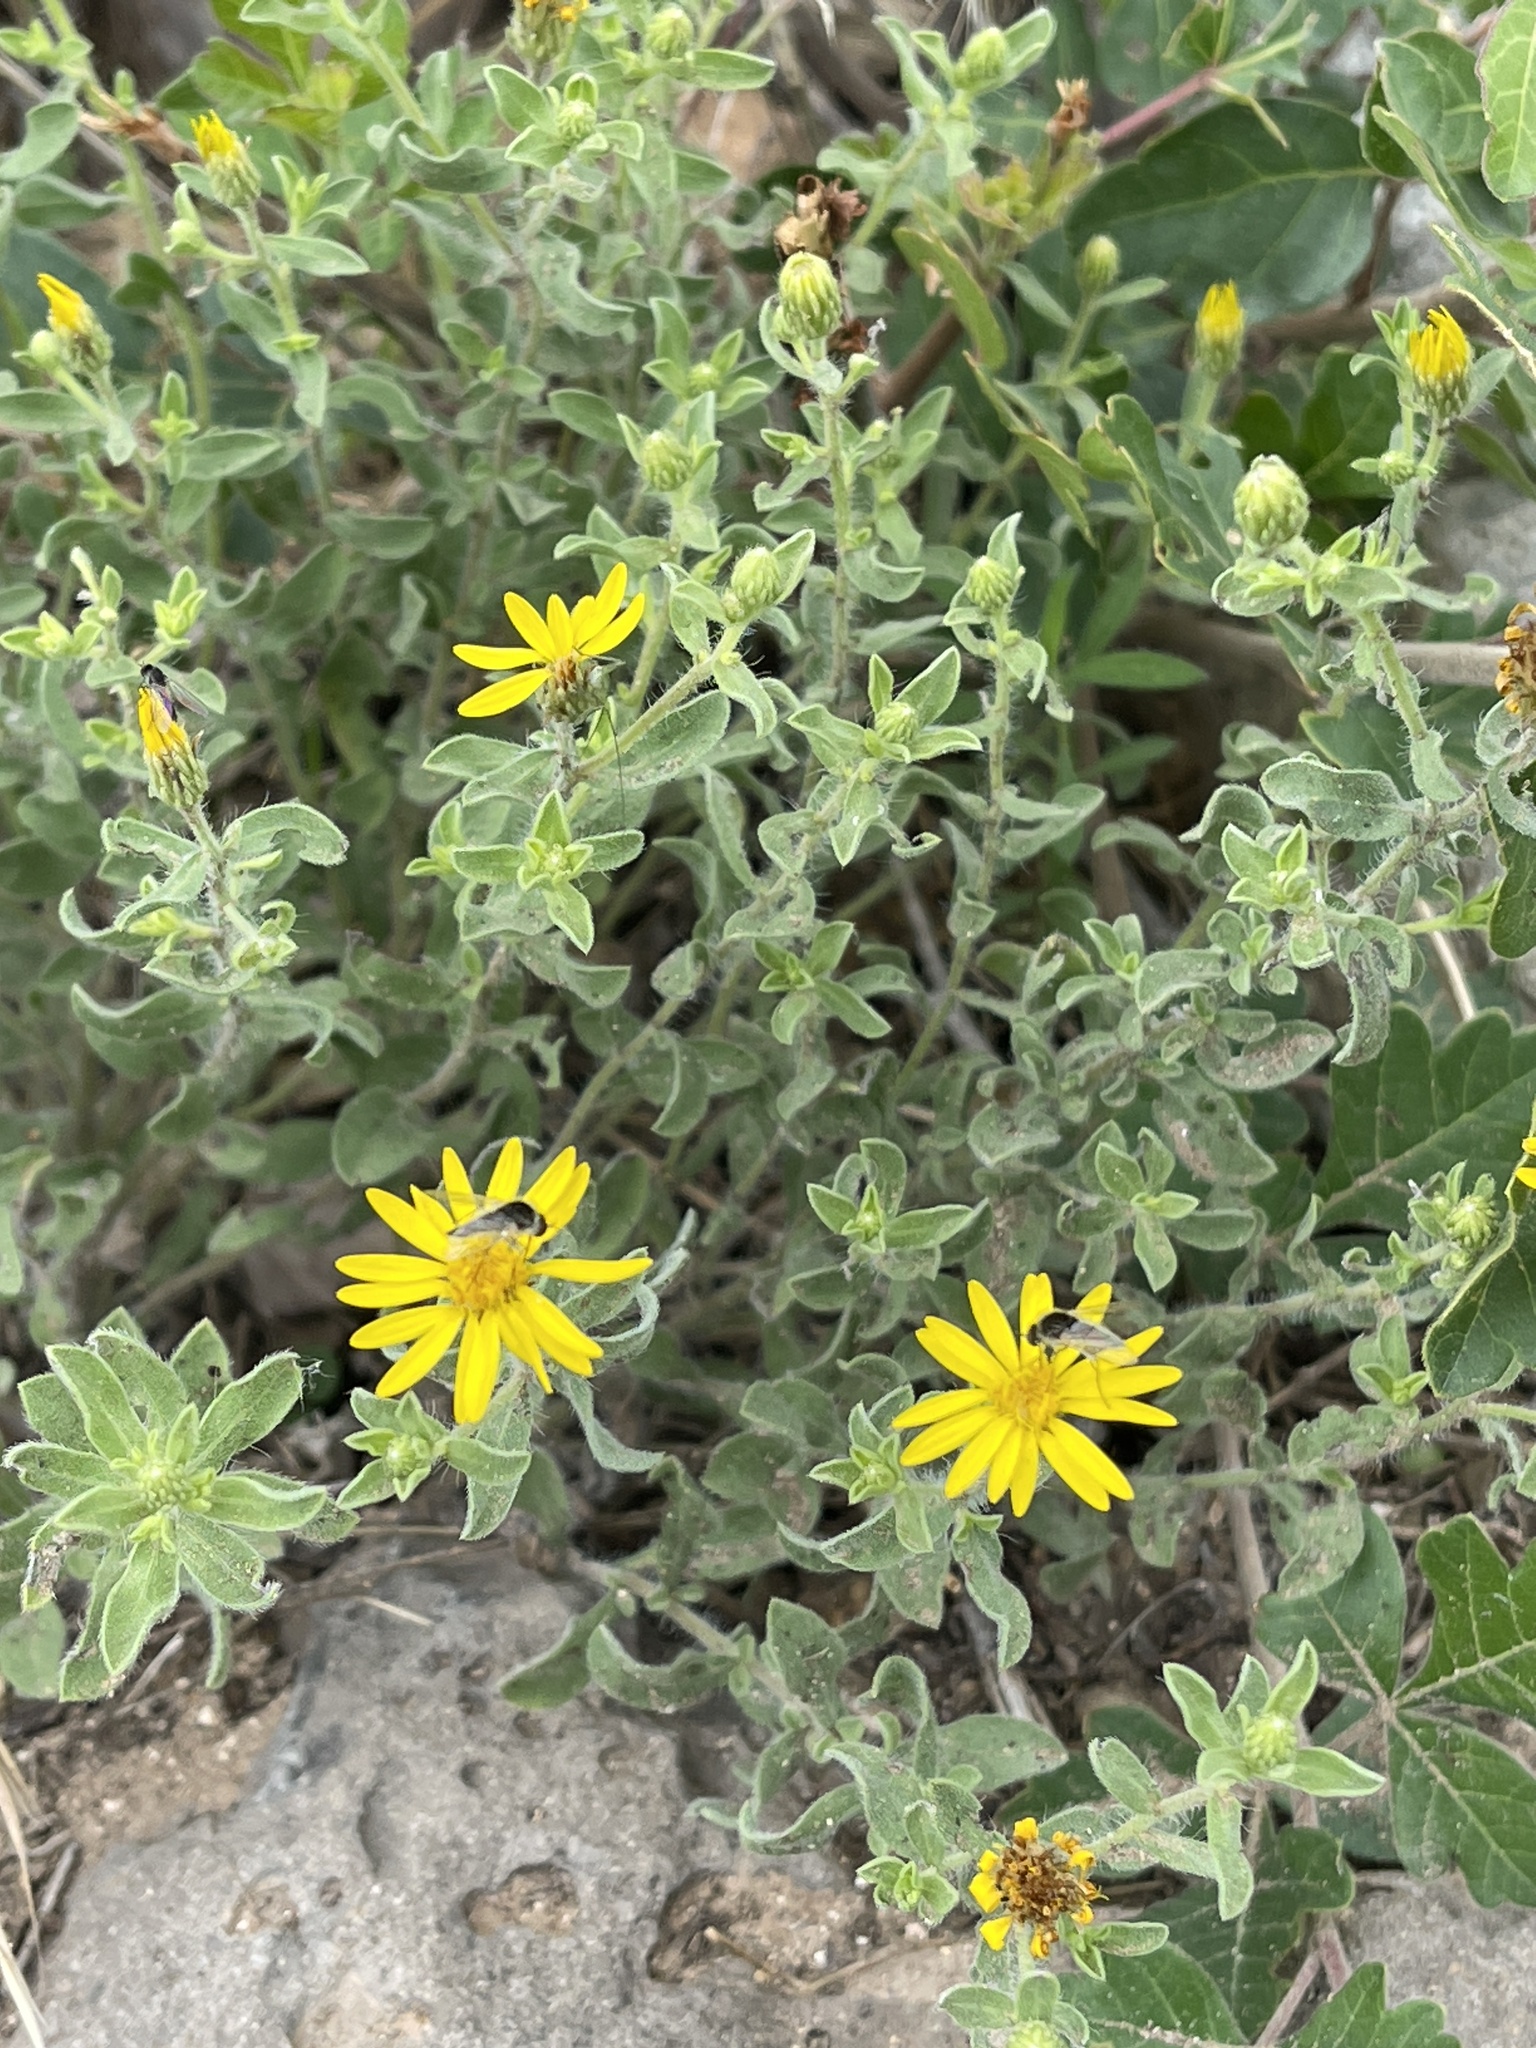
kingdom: Plantae
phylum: Tracheophyta
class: Magnoliopsida
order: Asterales
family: Asteraceae
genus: Heterotheca
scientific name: Heterotheca hirsutissima
